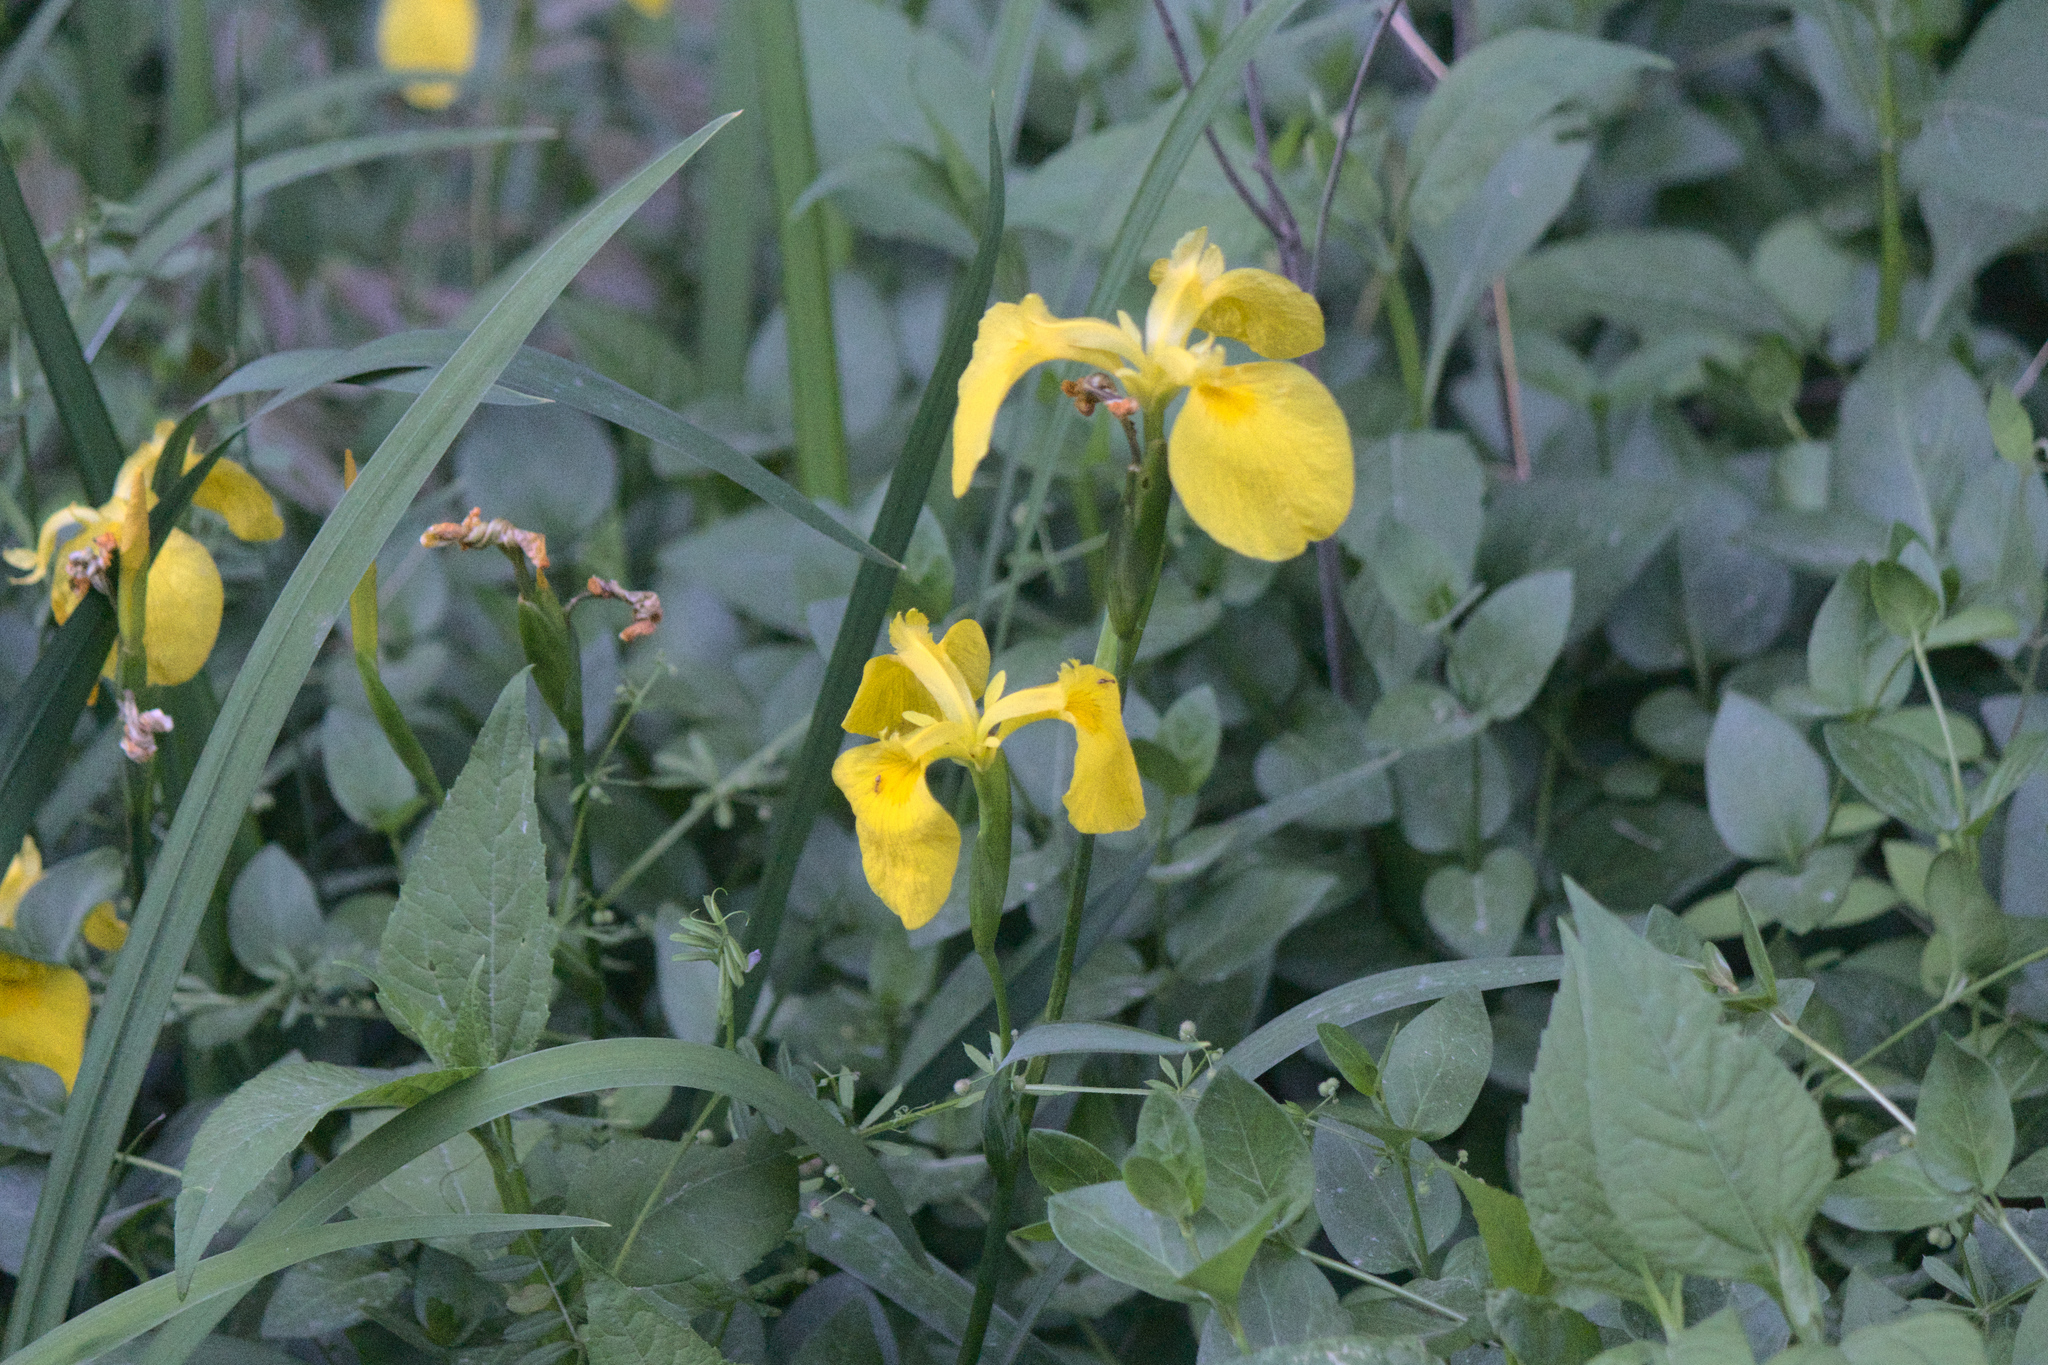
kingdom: Plantae
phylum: Tracheophyta
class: Liliopsida
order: Asparagales
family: Iridaceae
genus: Iris
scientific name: Iris pseudacorus
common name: Yellow flag
